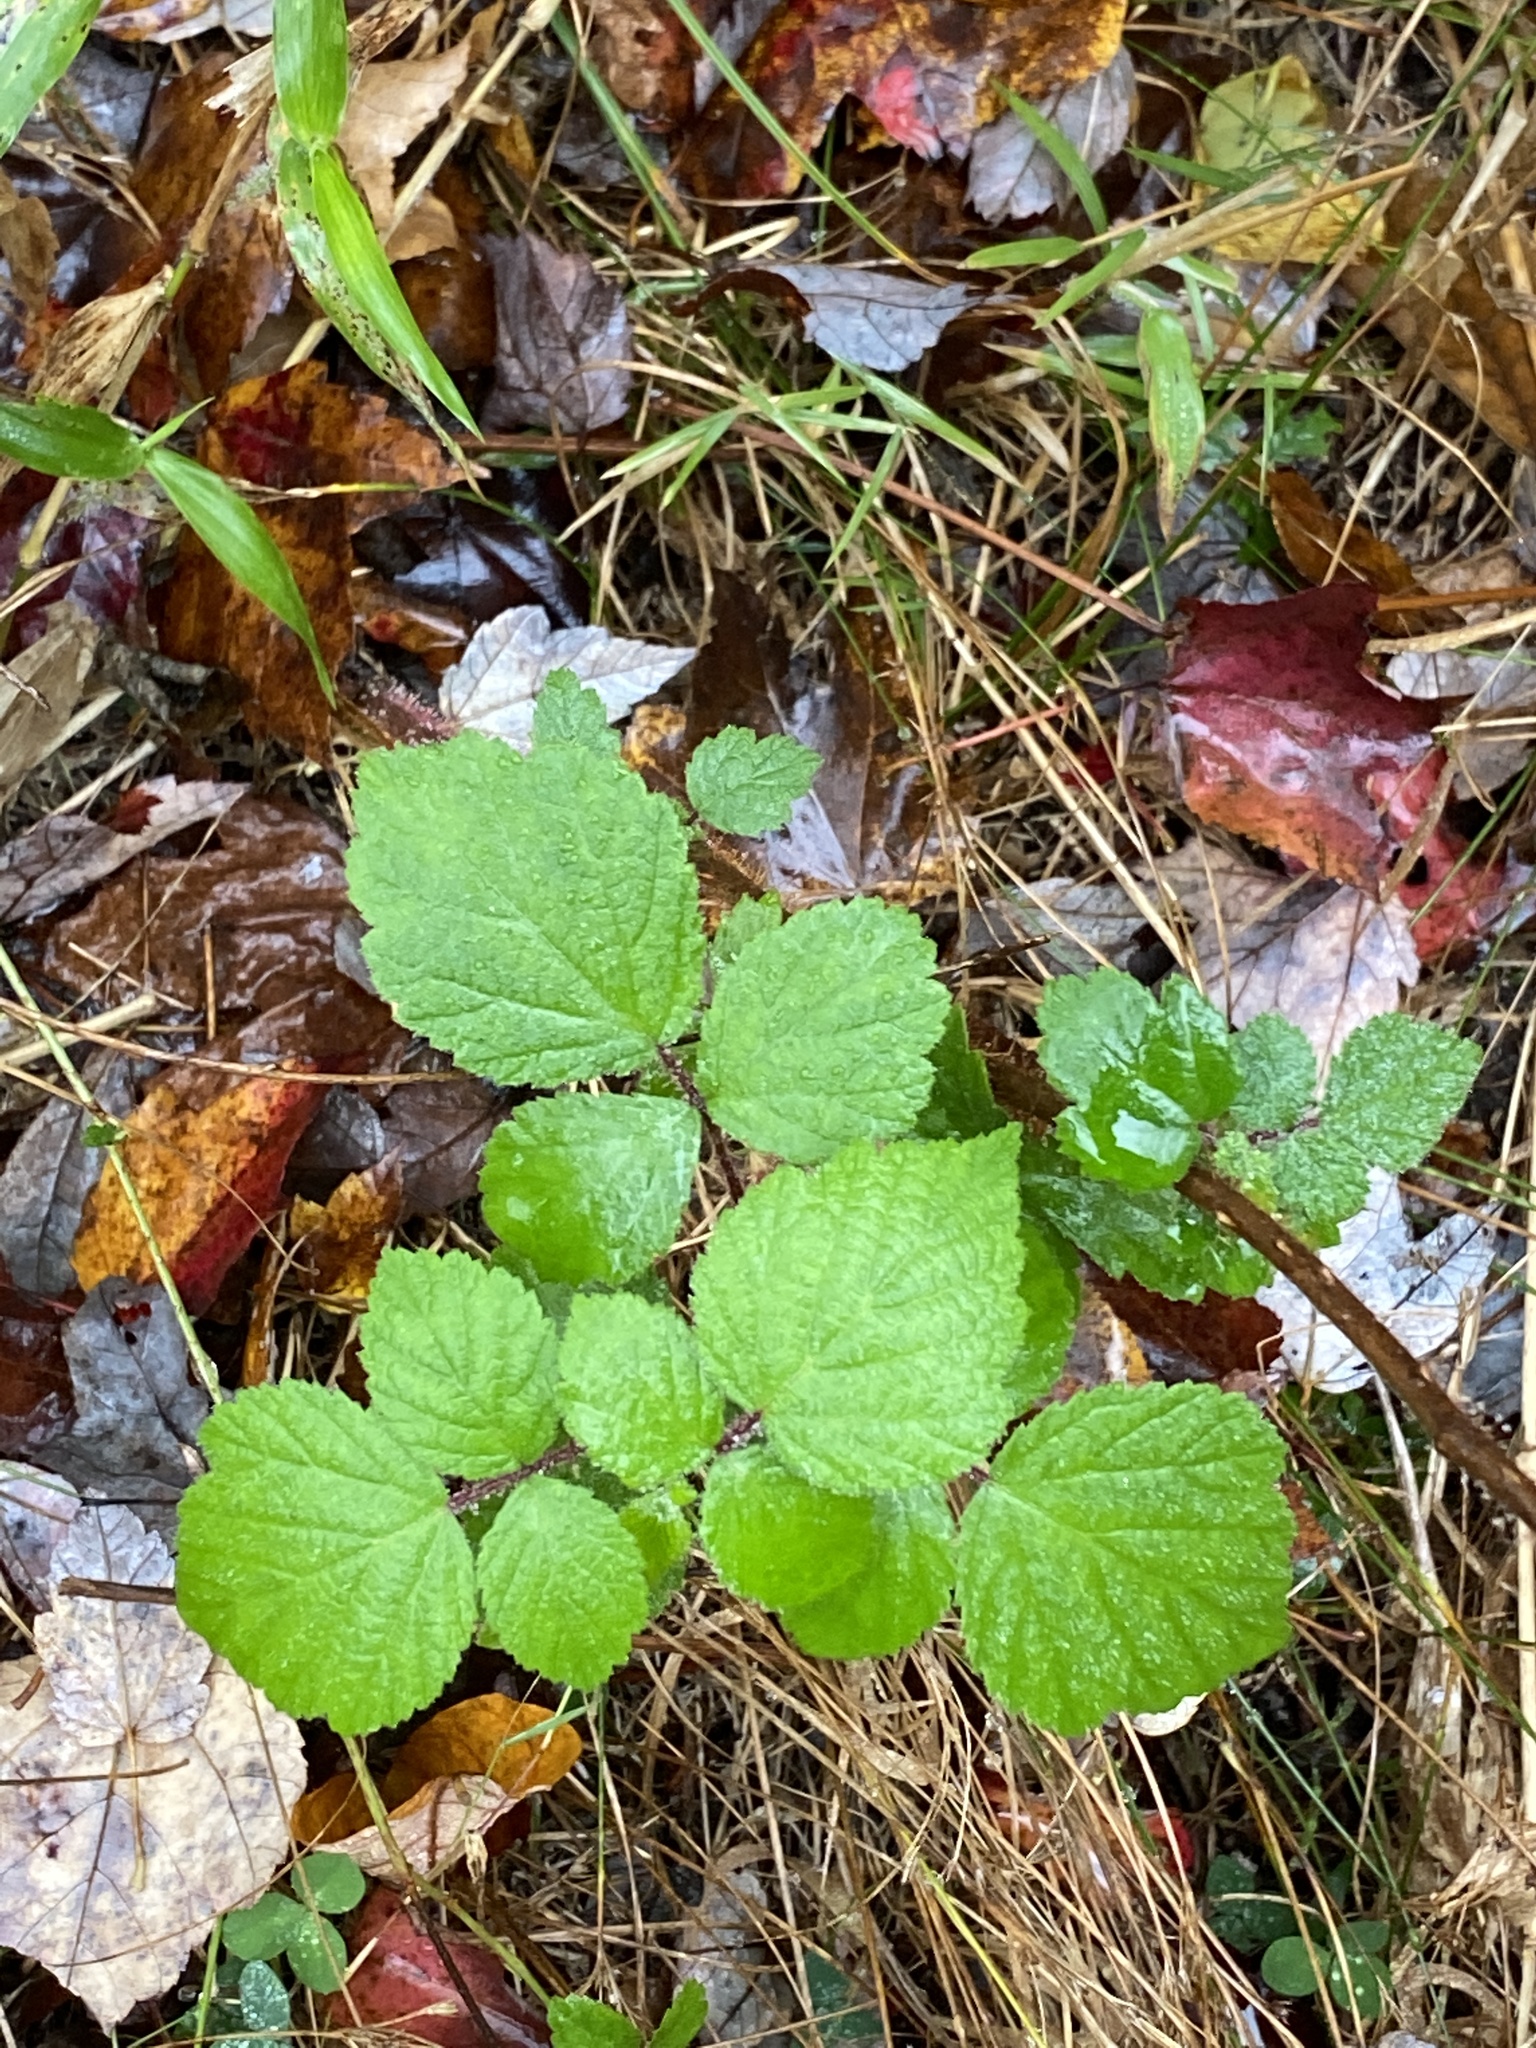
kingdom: Plantae
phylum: Tracheophyta
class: Magnoliopsida
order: Rosales
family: Rosaceae
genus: Rubus
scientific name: Rubus phoenicolasius
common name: Japanese wineberry
